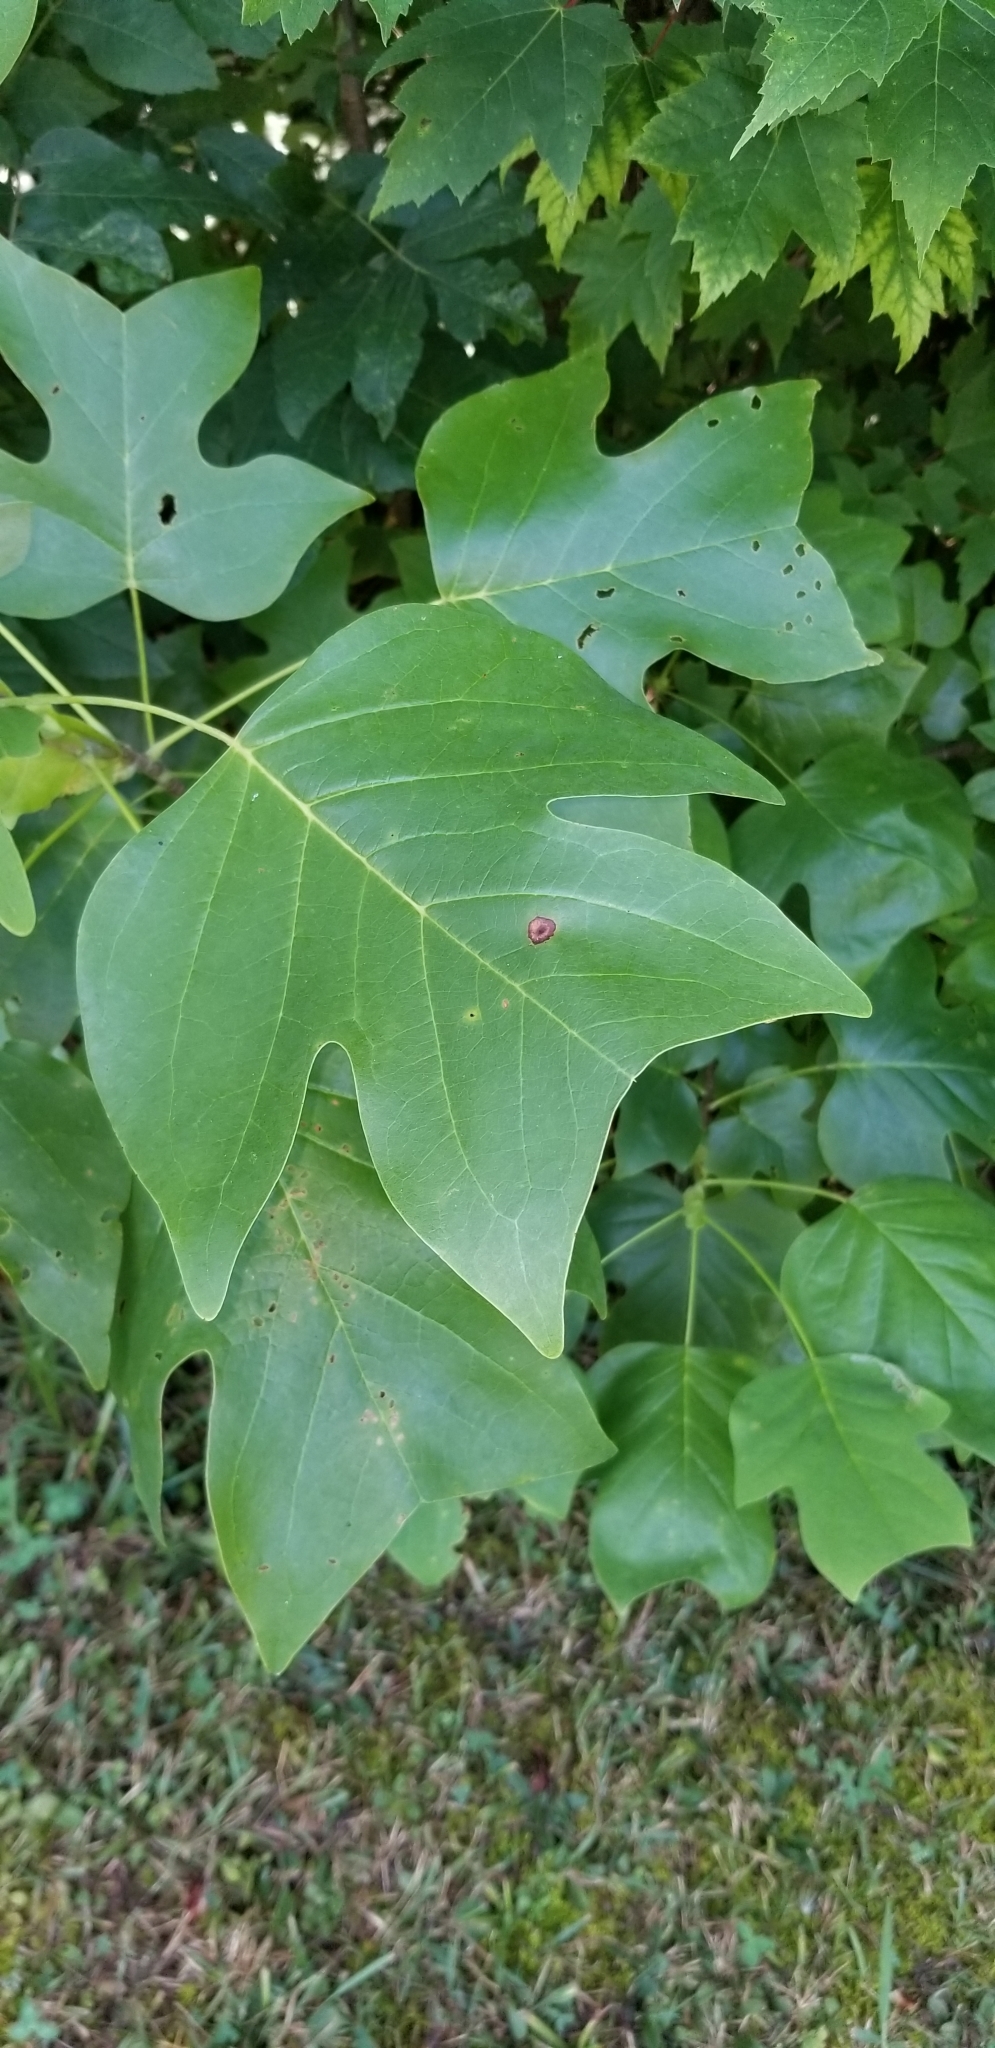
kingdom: Plantae
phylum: Tracheophyta
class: Magnoliopsida
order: Magnoliales
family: Magnoliaceae
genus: Liriodendron
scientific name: Liriodendron tulipifera
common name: Tulip tree
